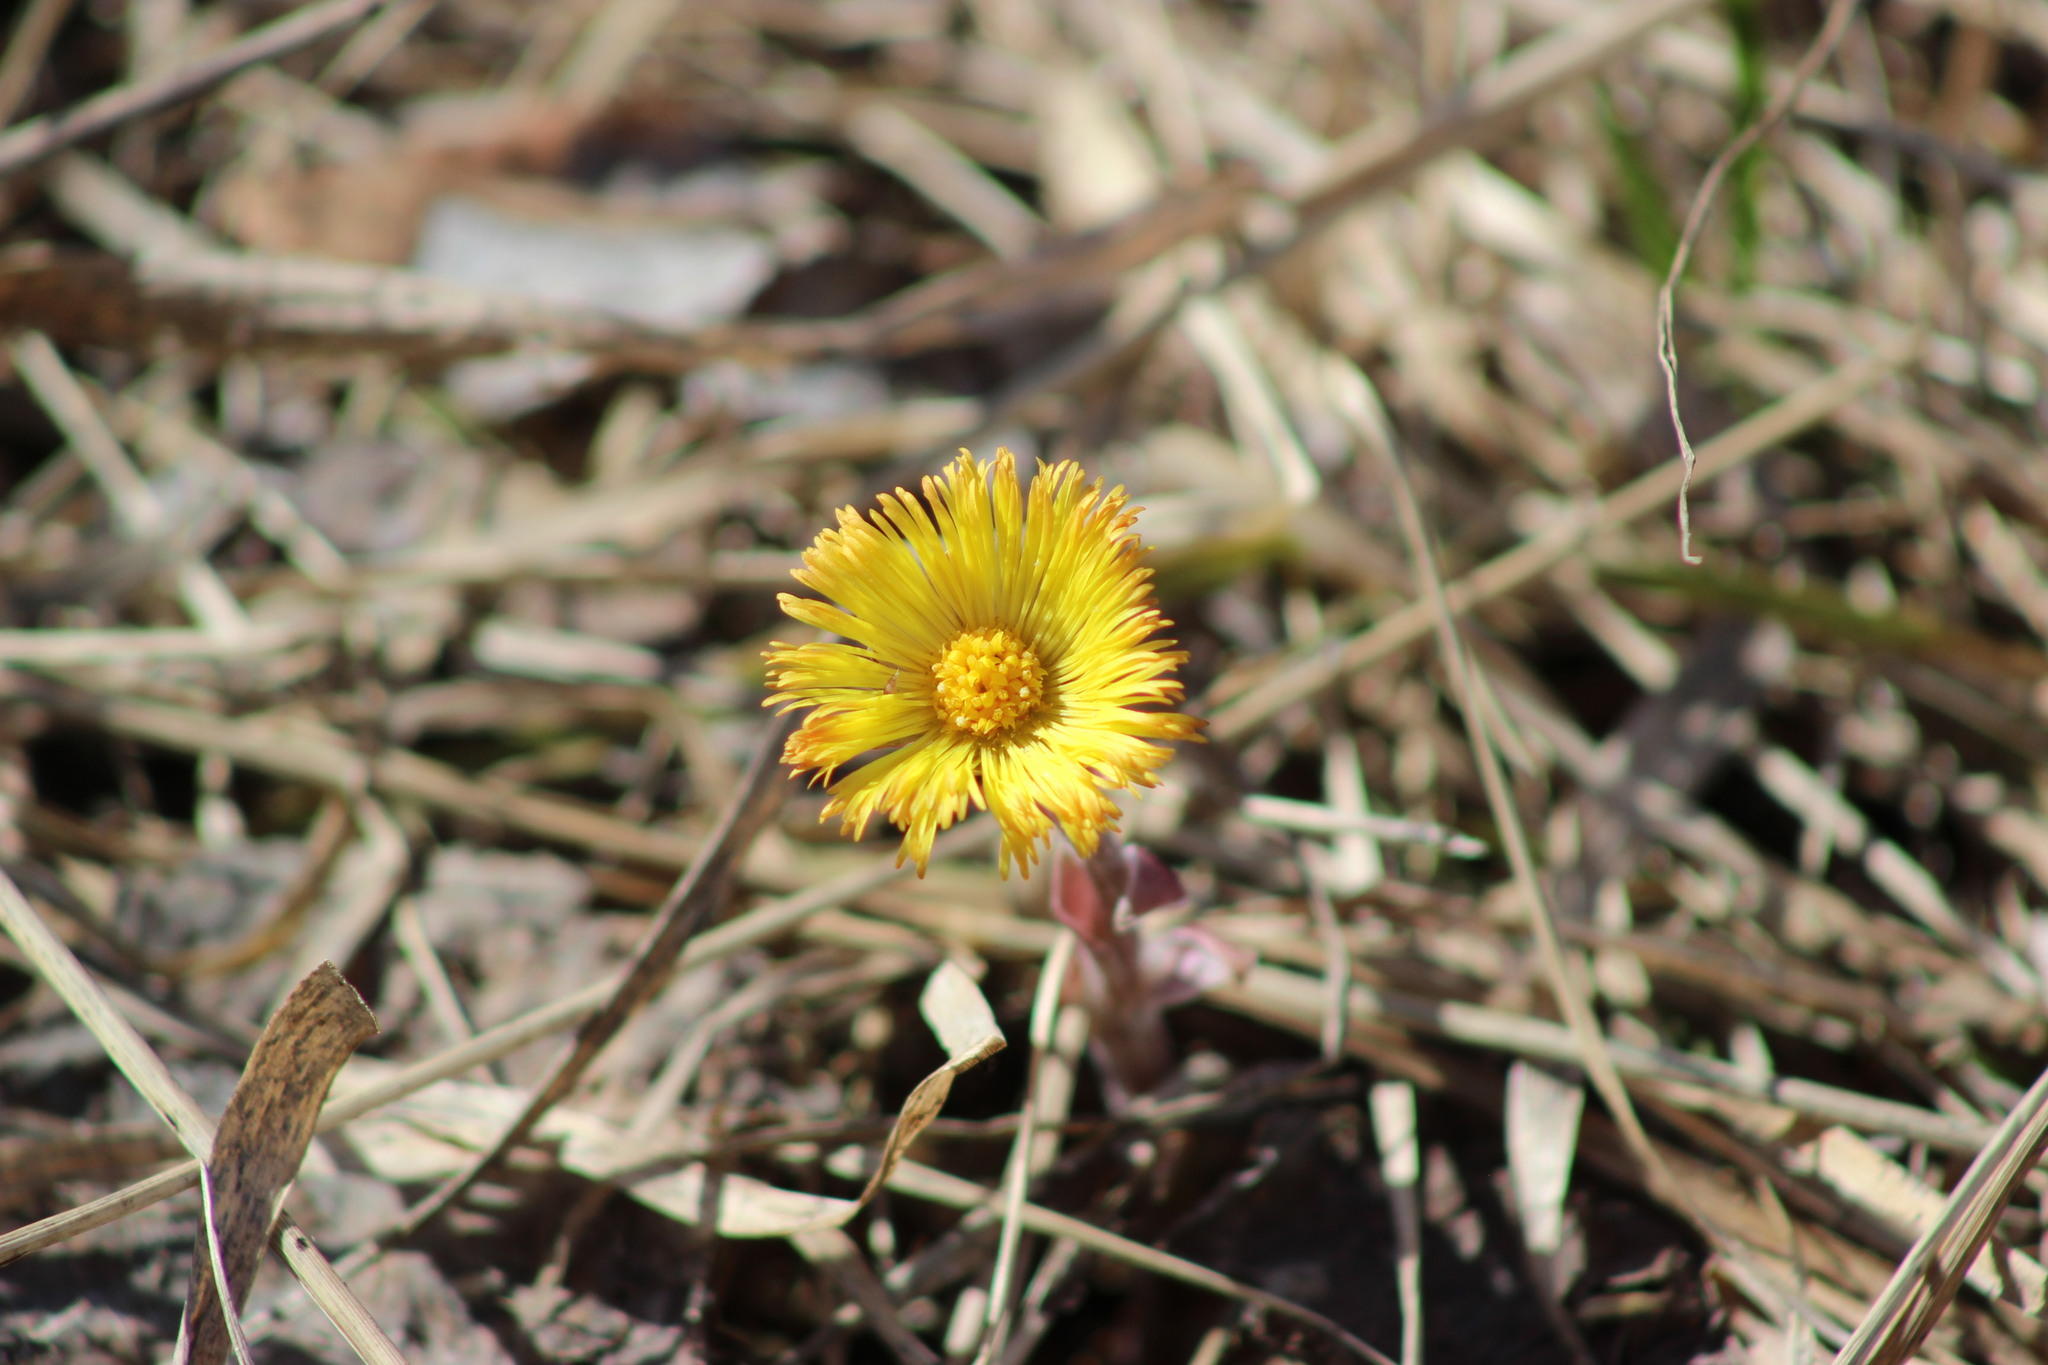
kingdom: Plantae
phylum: Tracheophyta
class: Magnoliopsida
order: Asterales
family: Asteraceae
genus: Tussilago
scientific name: Tussilago farfara
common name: Coltsfoot
